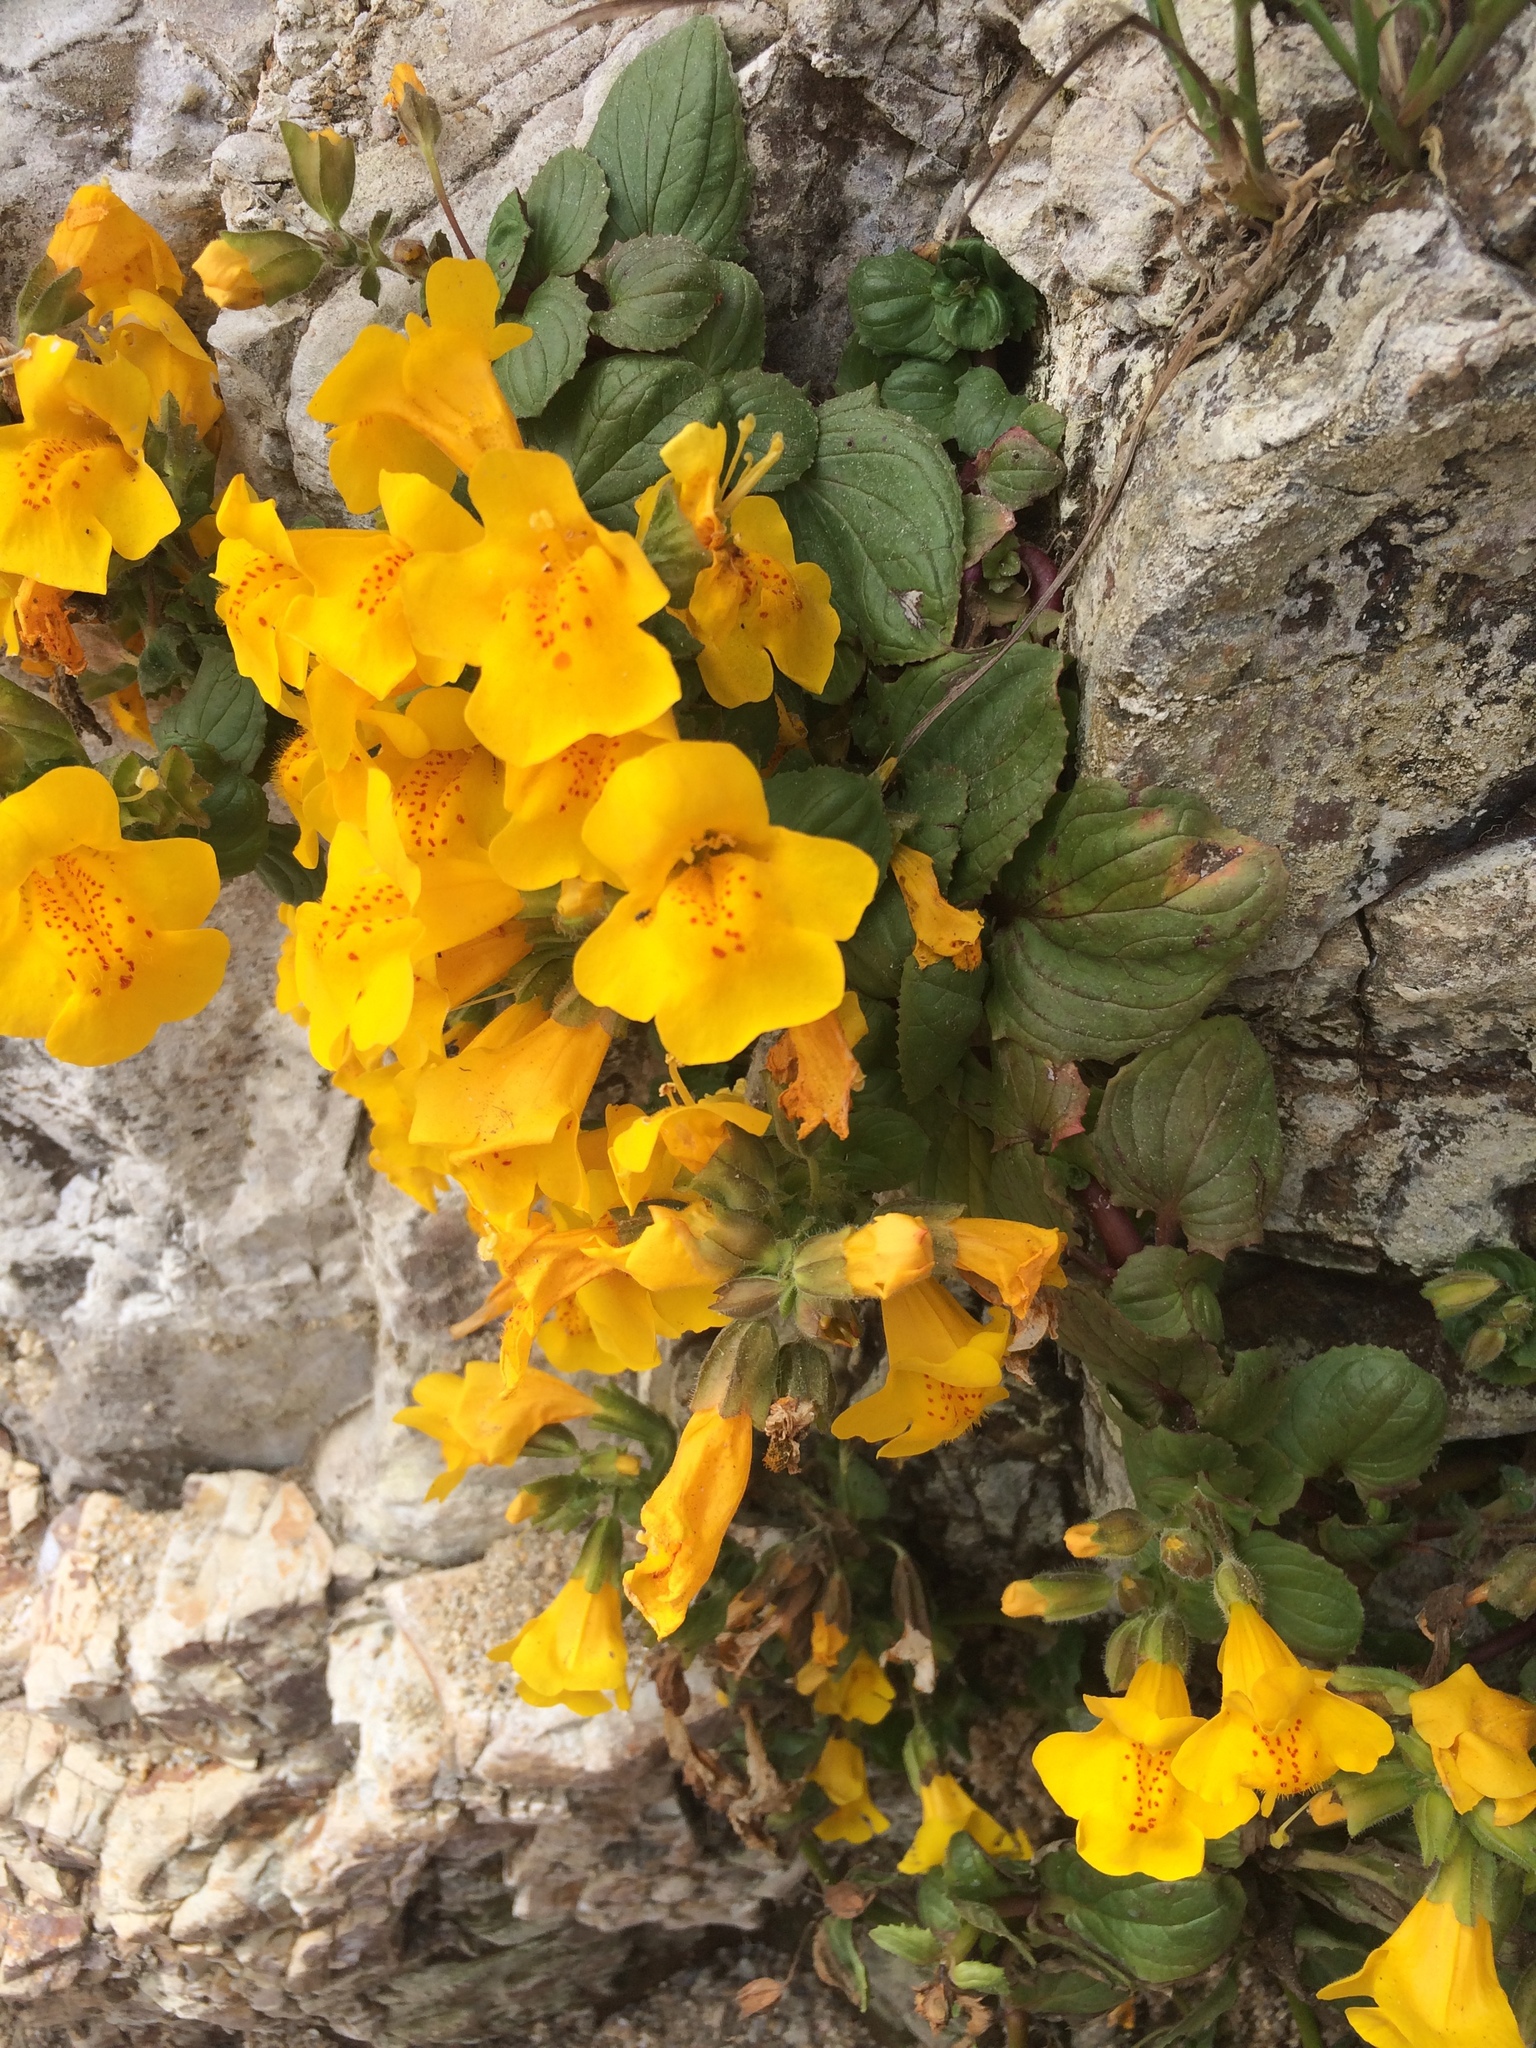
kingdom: Plantae
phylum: Tracheophyta
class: Magnoliopsida
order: Lamiales
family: Phrymaceae
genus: Erythranthe
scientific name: Erythranthe grandis
